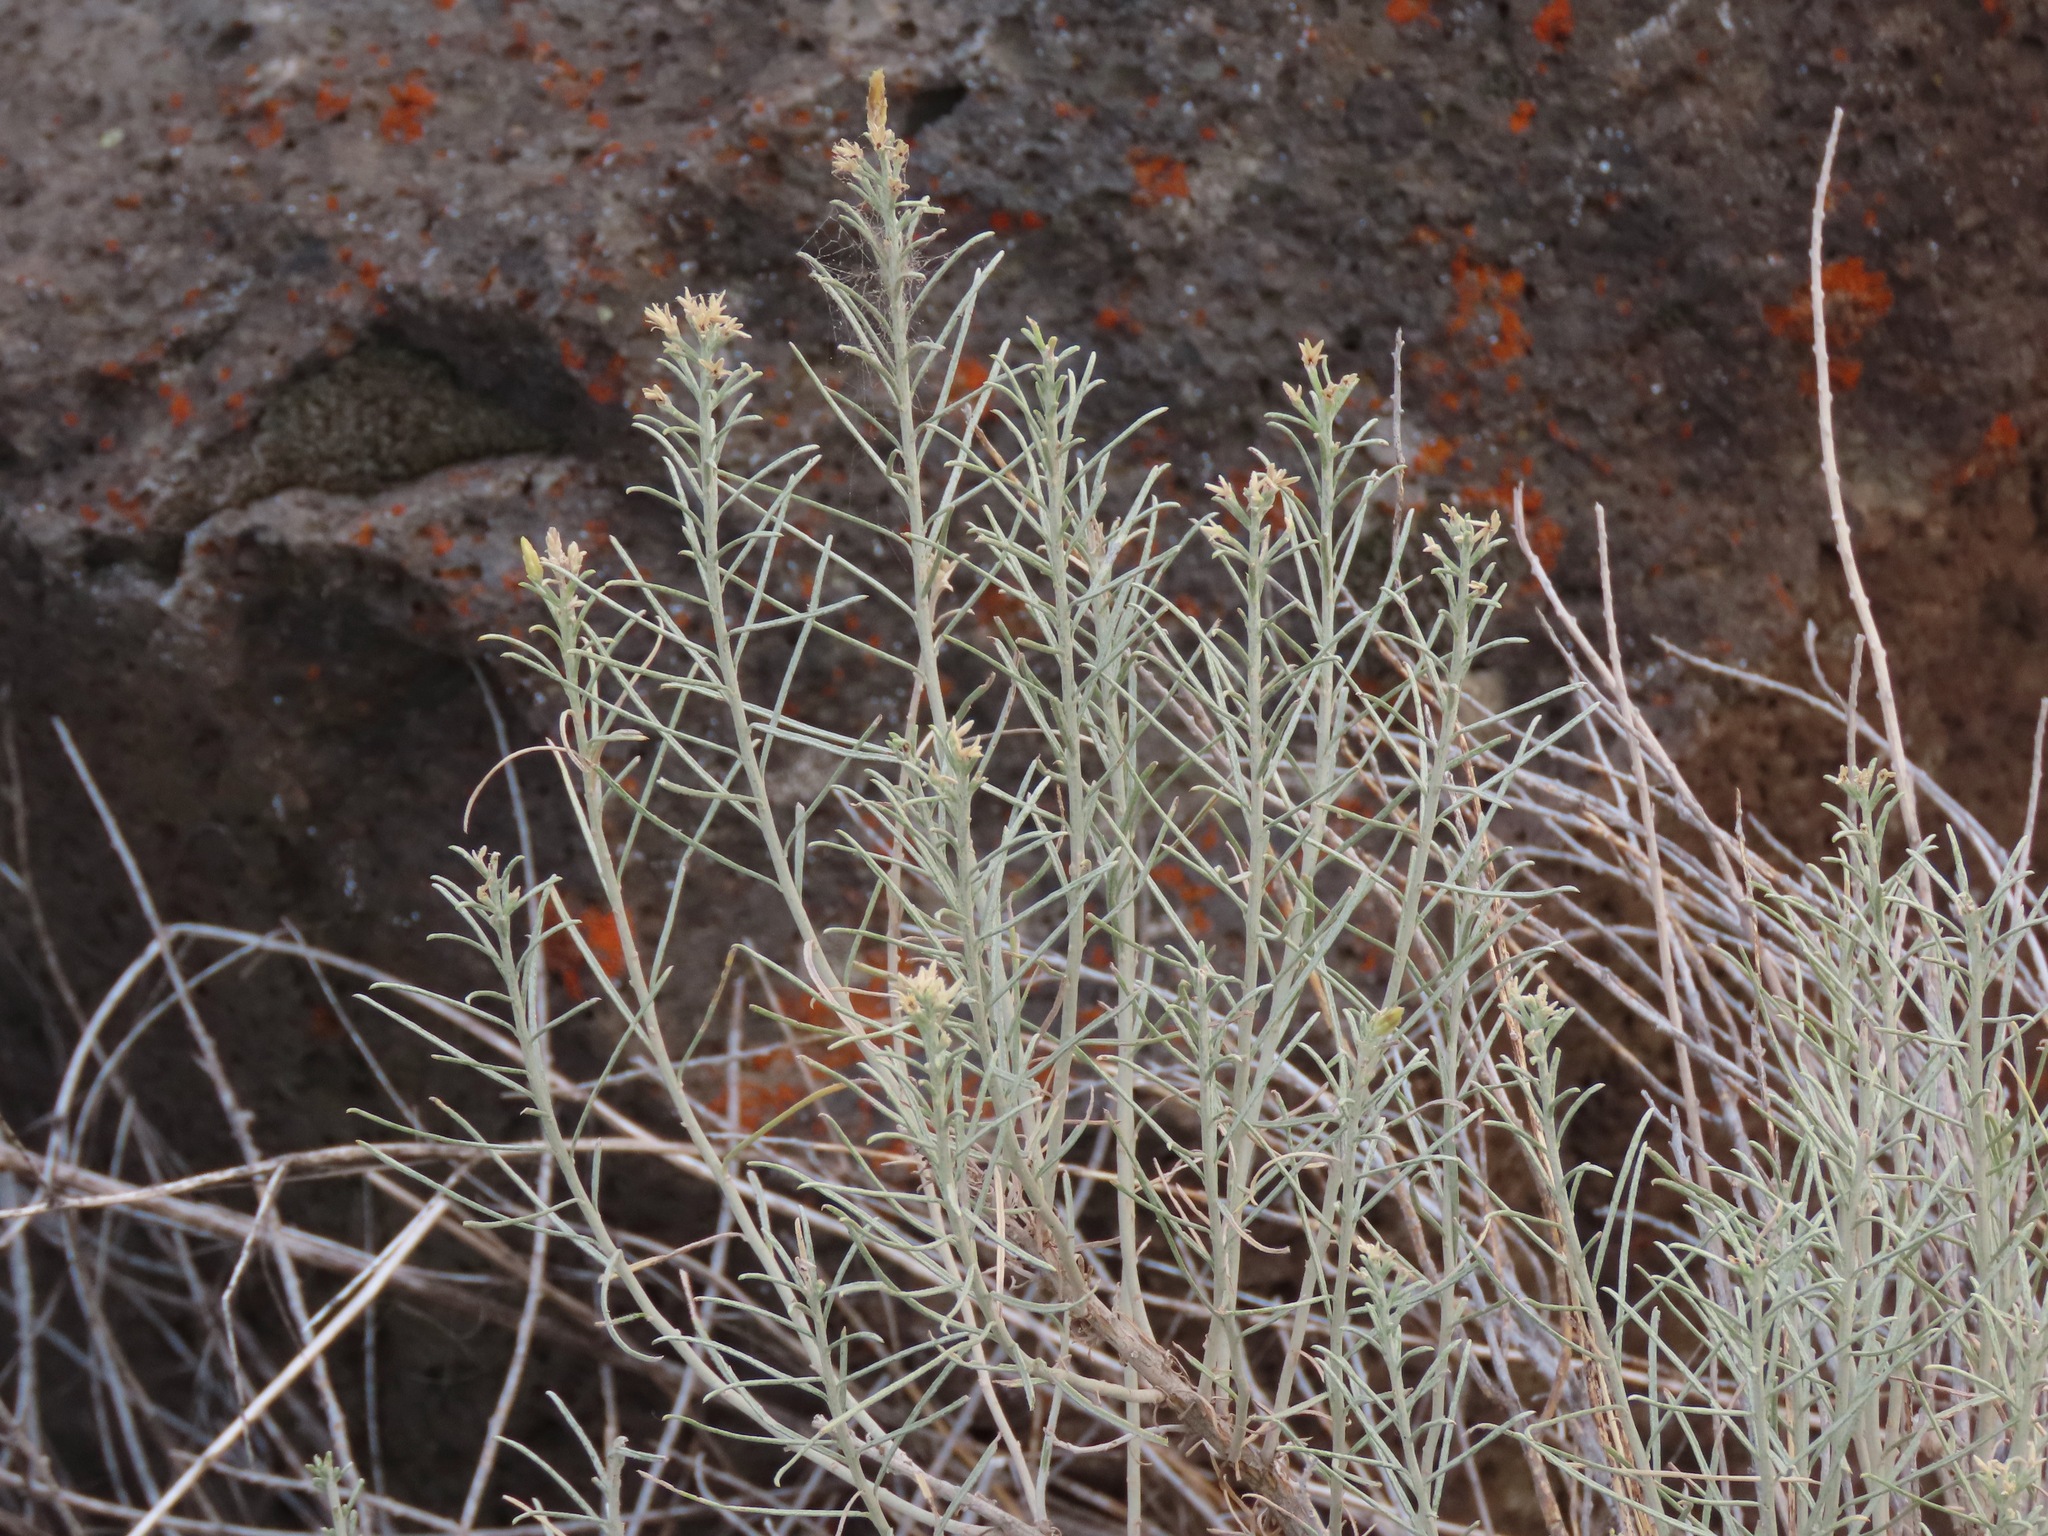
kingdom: Plantae
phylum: Tracheophyta
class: Magnoliopsida
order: Asterales
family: Asteraceae
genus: Ericameria
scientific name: Ericameria nauseosa
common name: Rubber rabbitbrush
